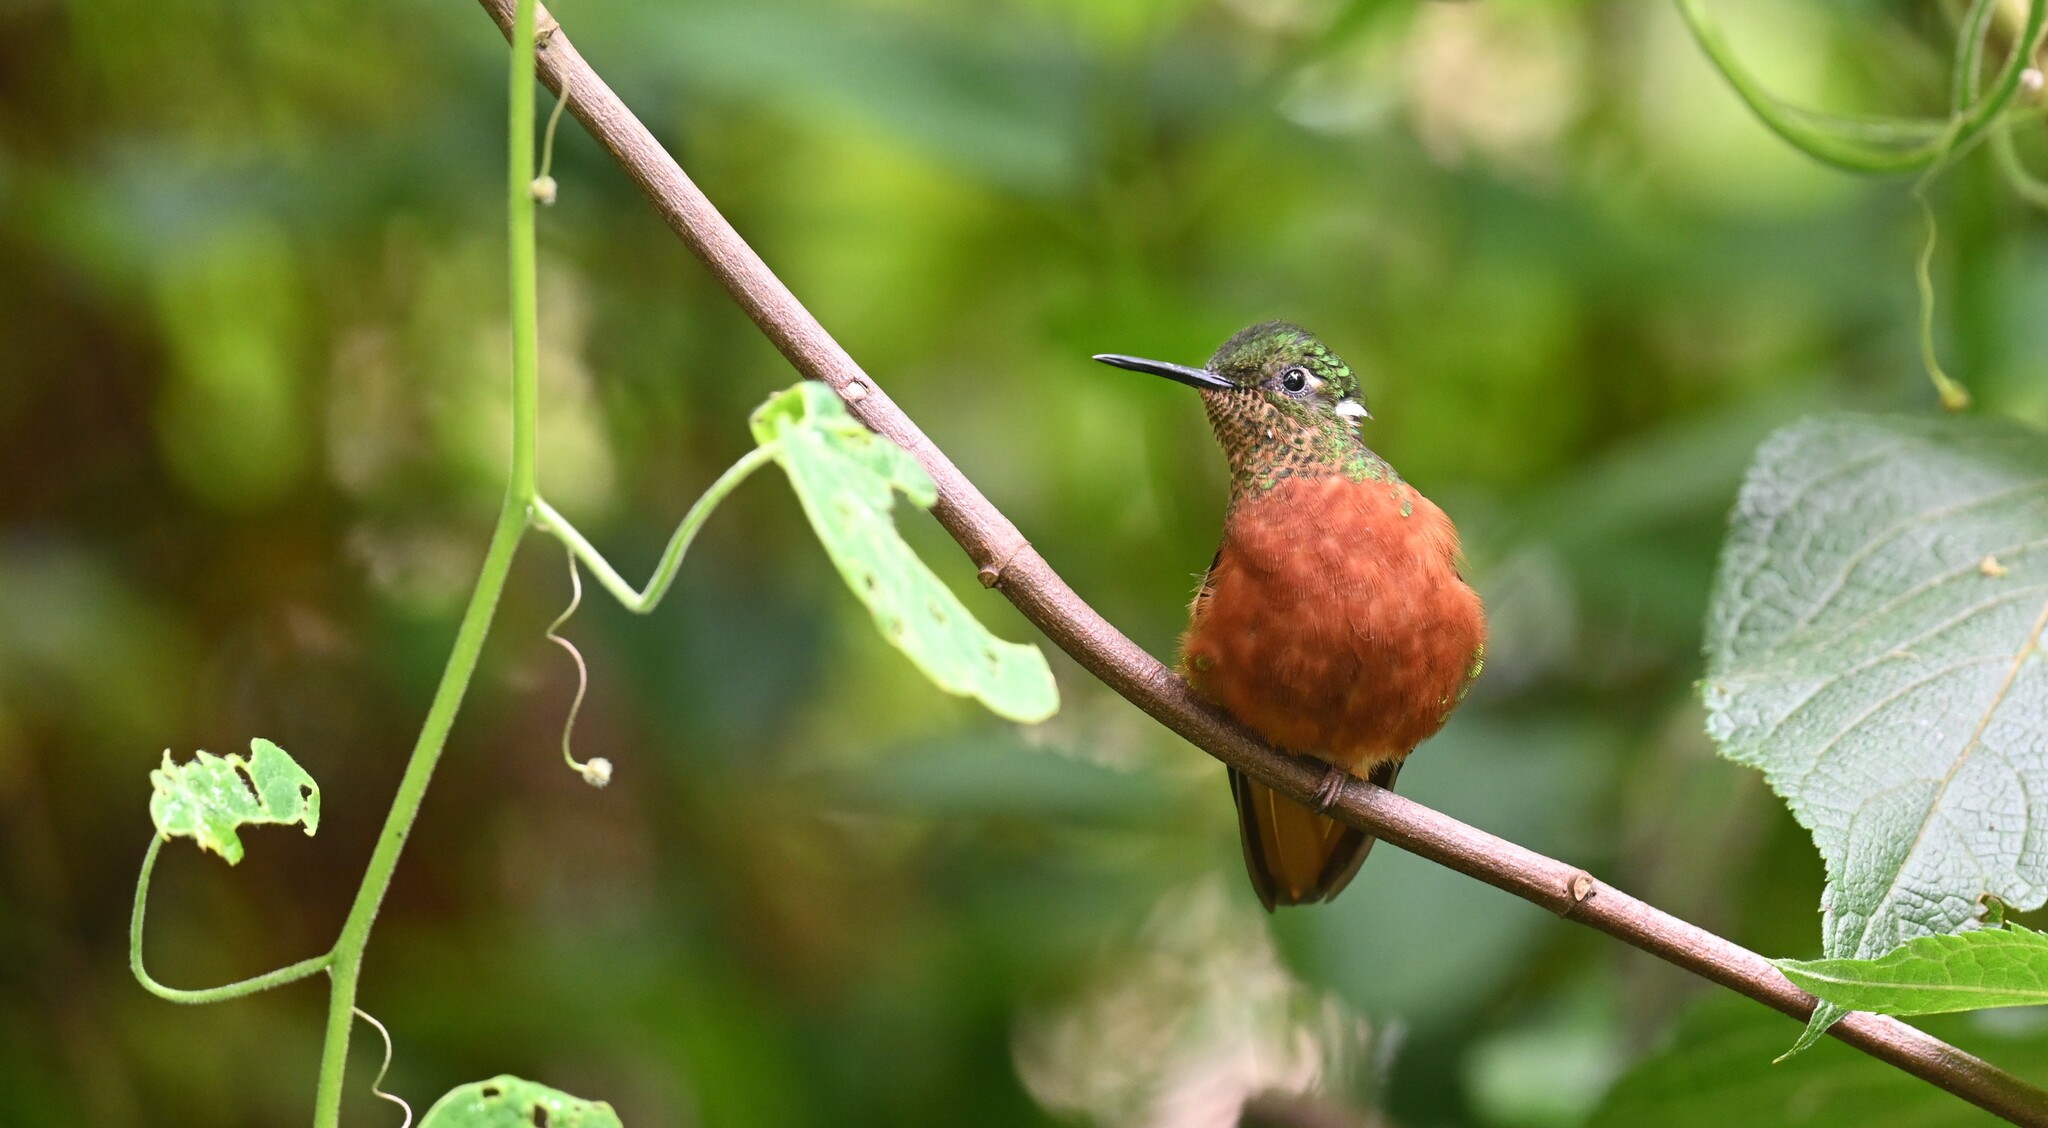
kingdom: Animalia
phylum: Chordata
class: Aves
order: Apodiformes
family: Trochilidae
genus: Boissonneaua
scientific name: Boissonneaua matthewsii
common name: Chestnut-breasted coronet
